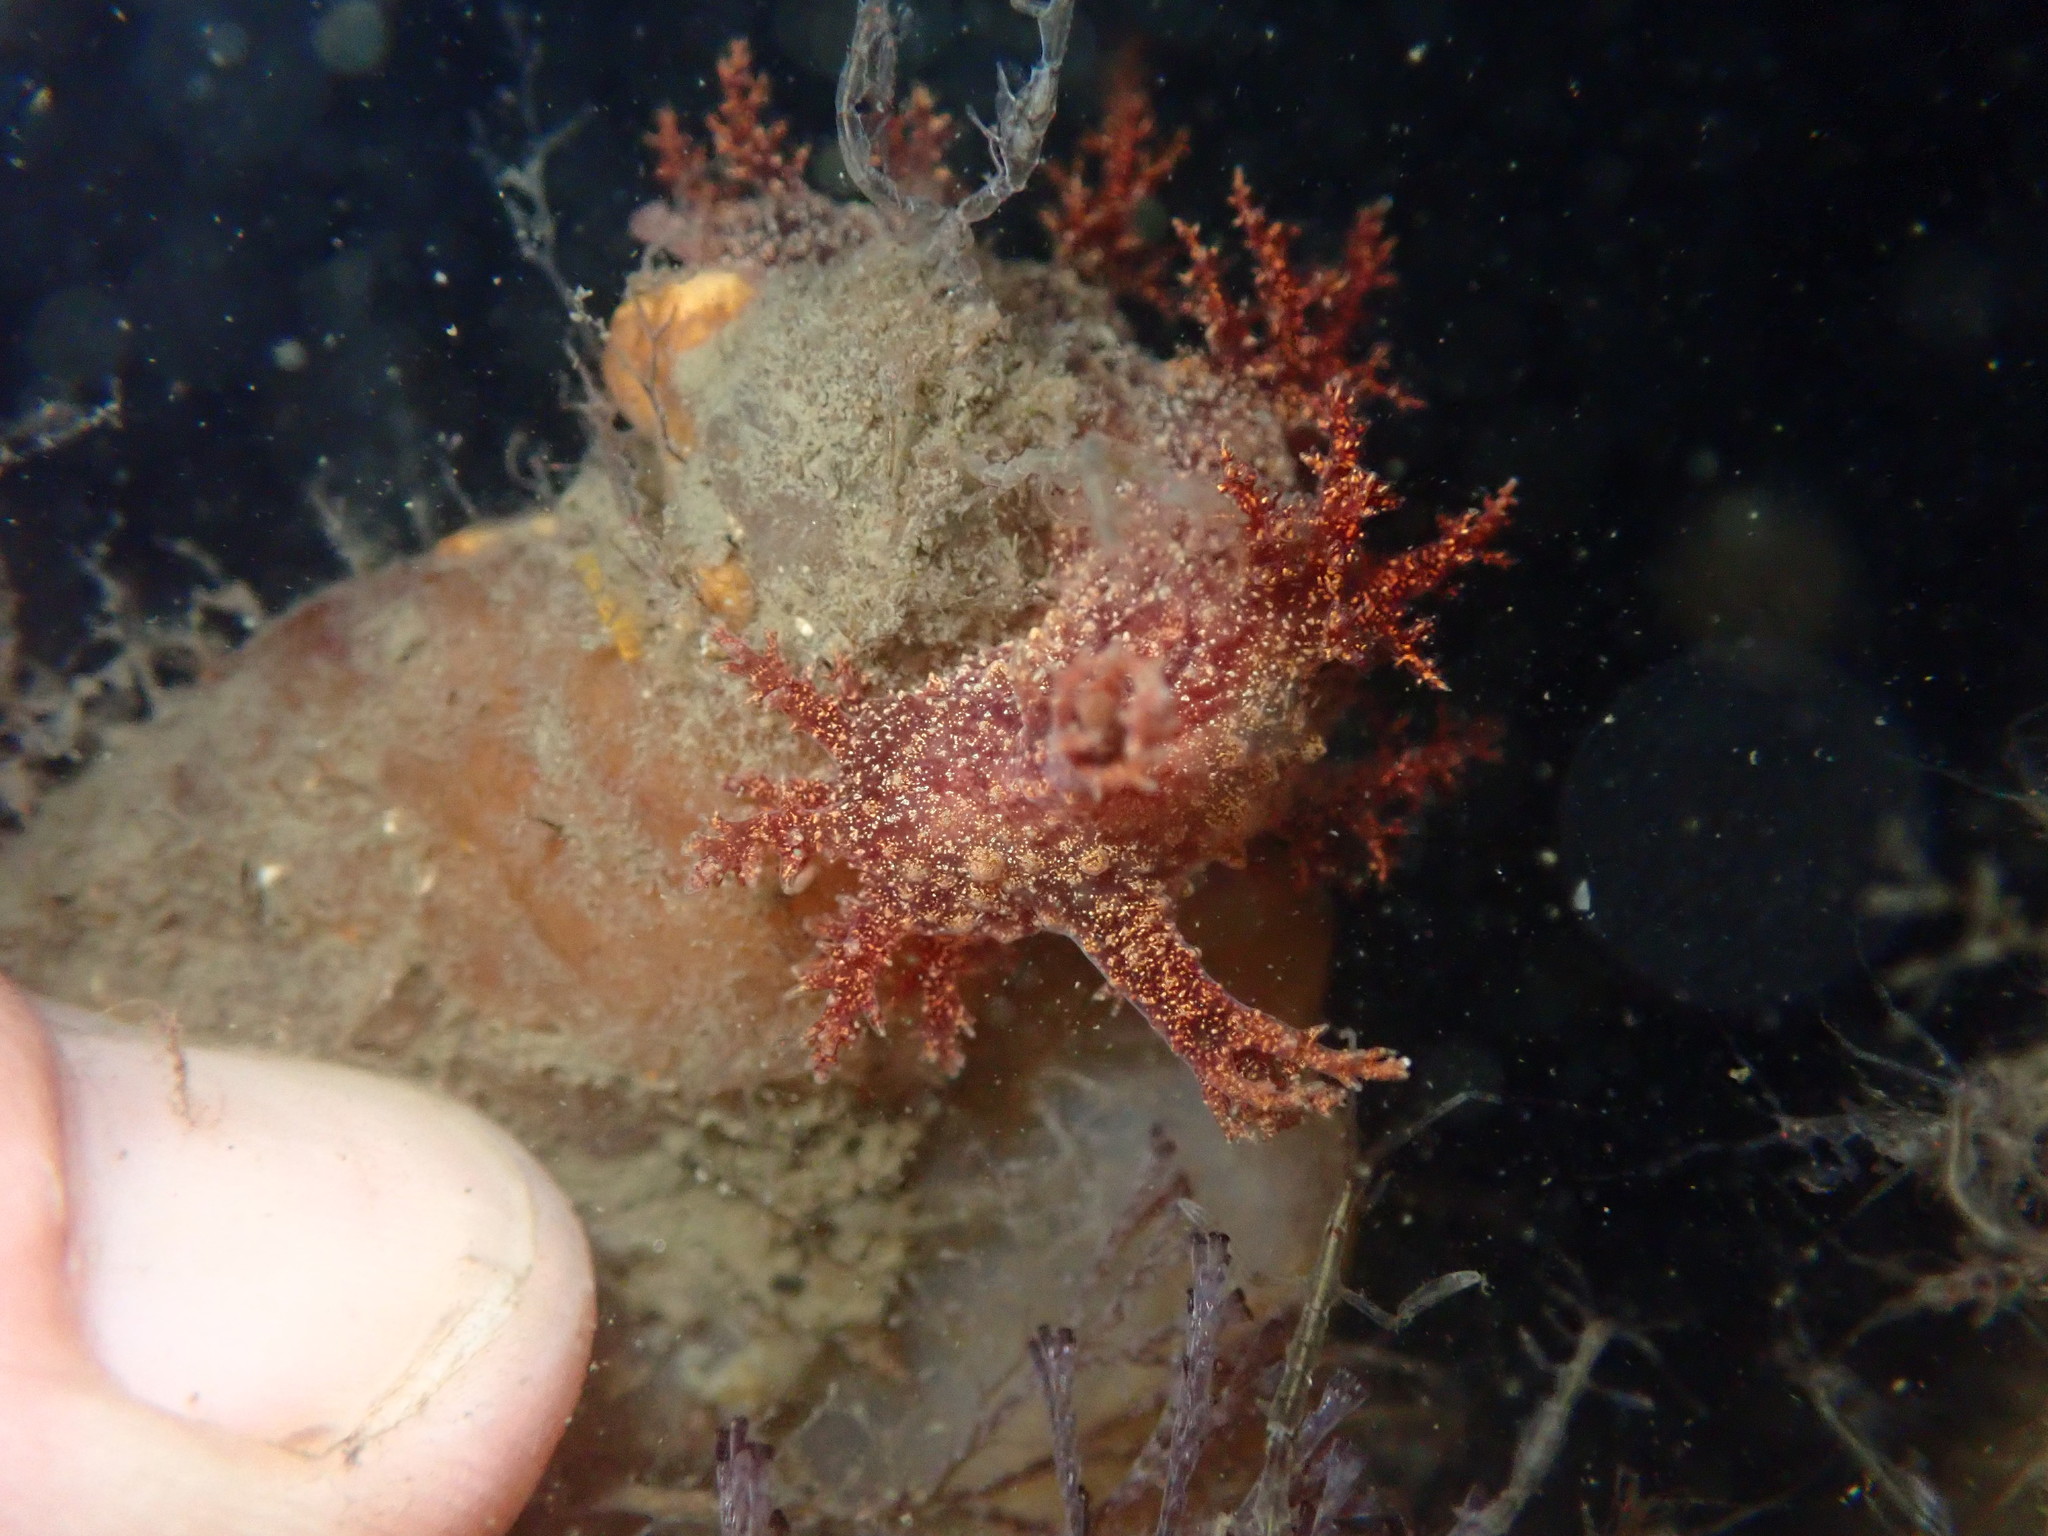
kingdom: Animalia
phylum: Mollusca
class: Gastropoda
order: Nudibranchia
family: Dendronotidae
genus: Dendronotus
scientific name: Dendronotus venustus
